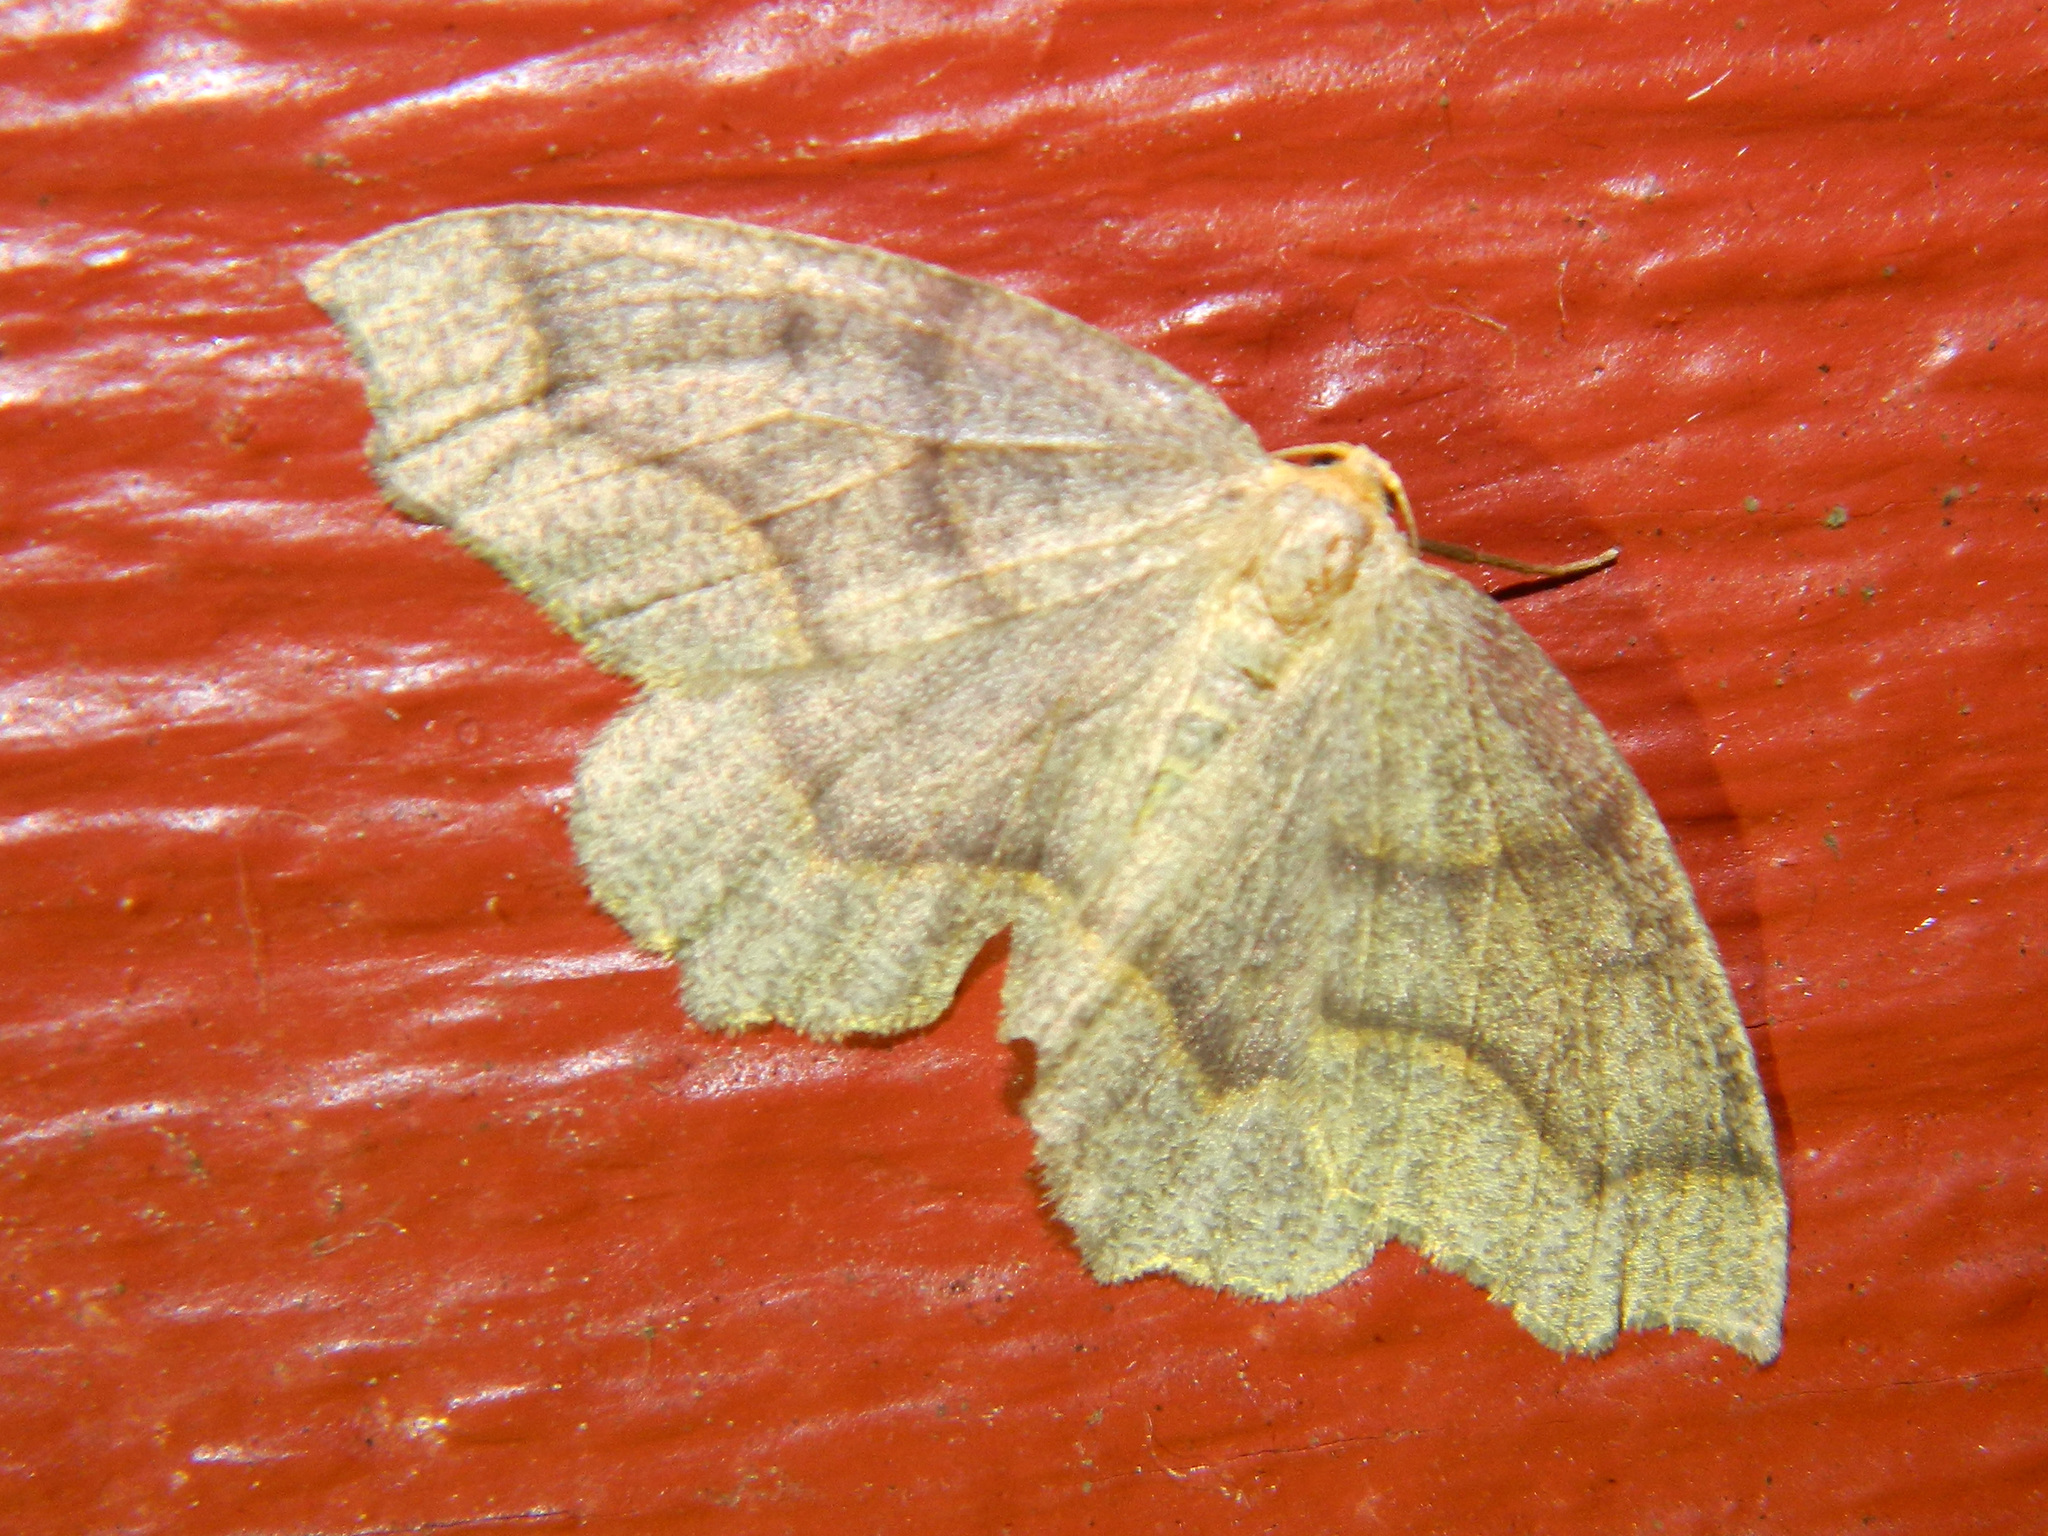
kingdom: Animalia
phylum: Arthropoda
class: Insecta
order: Lepidoptera
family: Geometridae
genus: Lambdina
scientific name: Lambdina fiscellaria
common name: Hemlock looper
